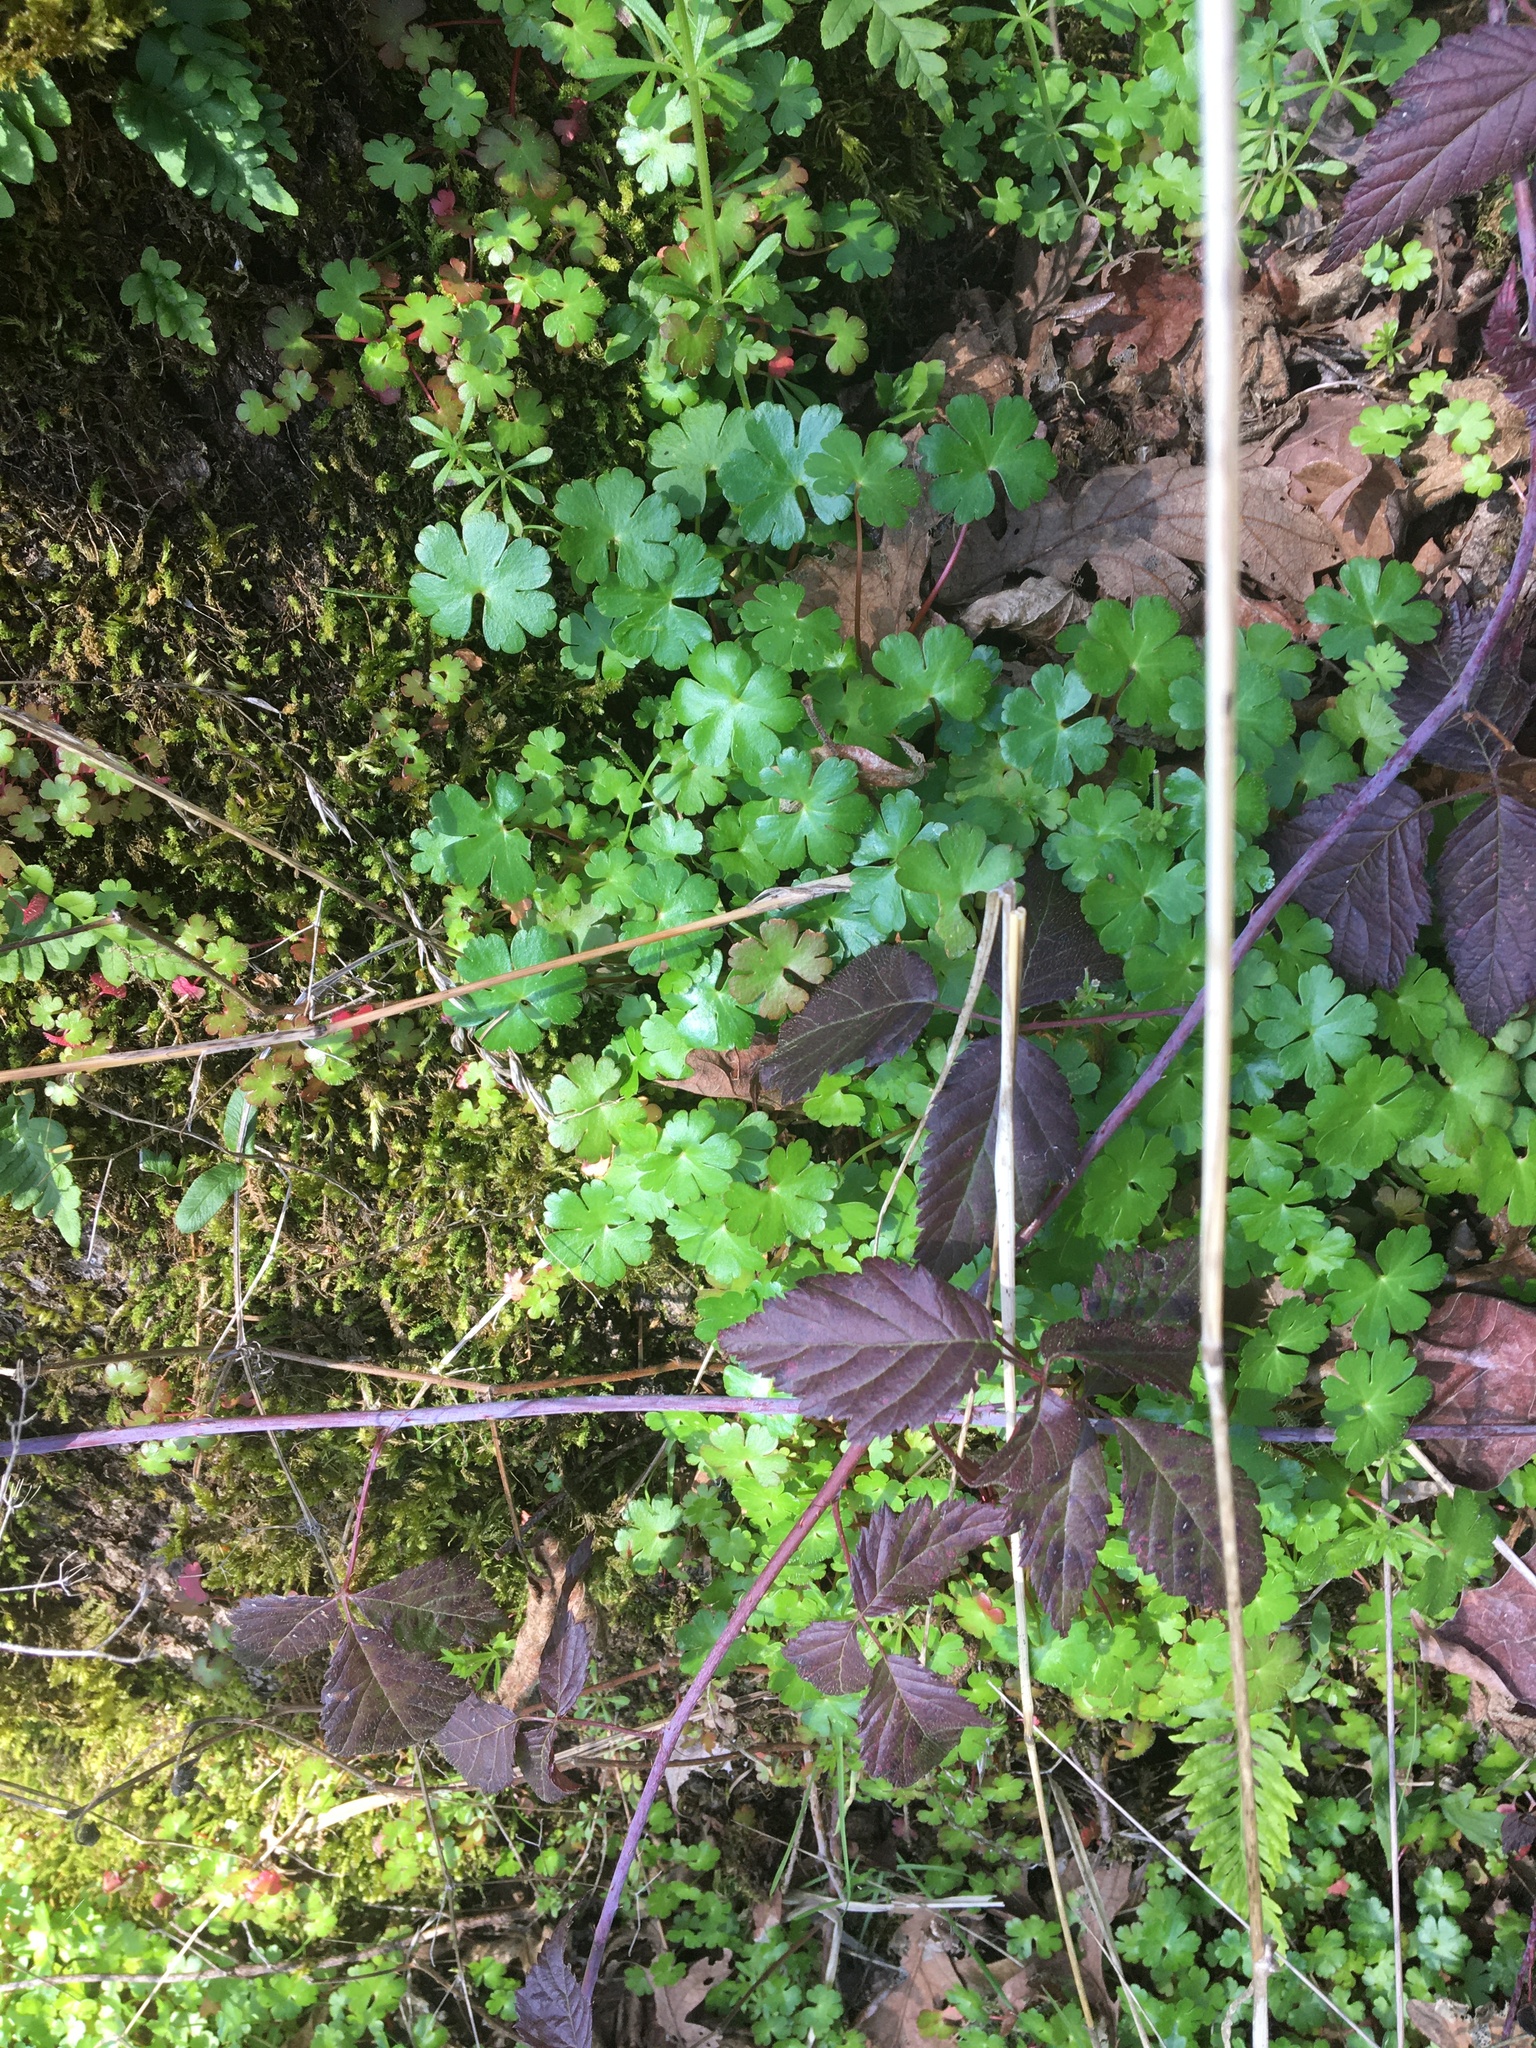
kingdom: Plantae
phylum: Tracheophyta
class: Magnoliopsida
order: Geraniales
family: Geraniaceae
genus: Geranium
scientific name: Geranium lucidum
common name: Shining crane's-bill
